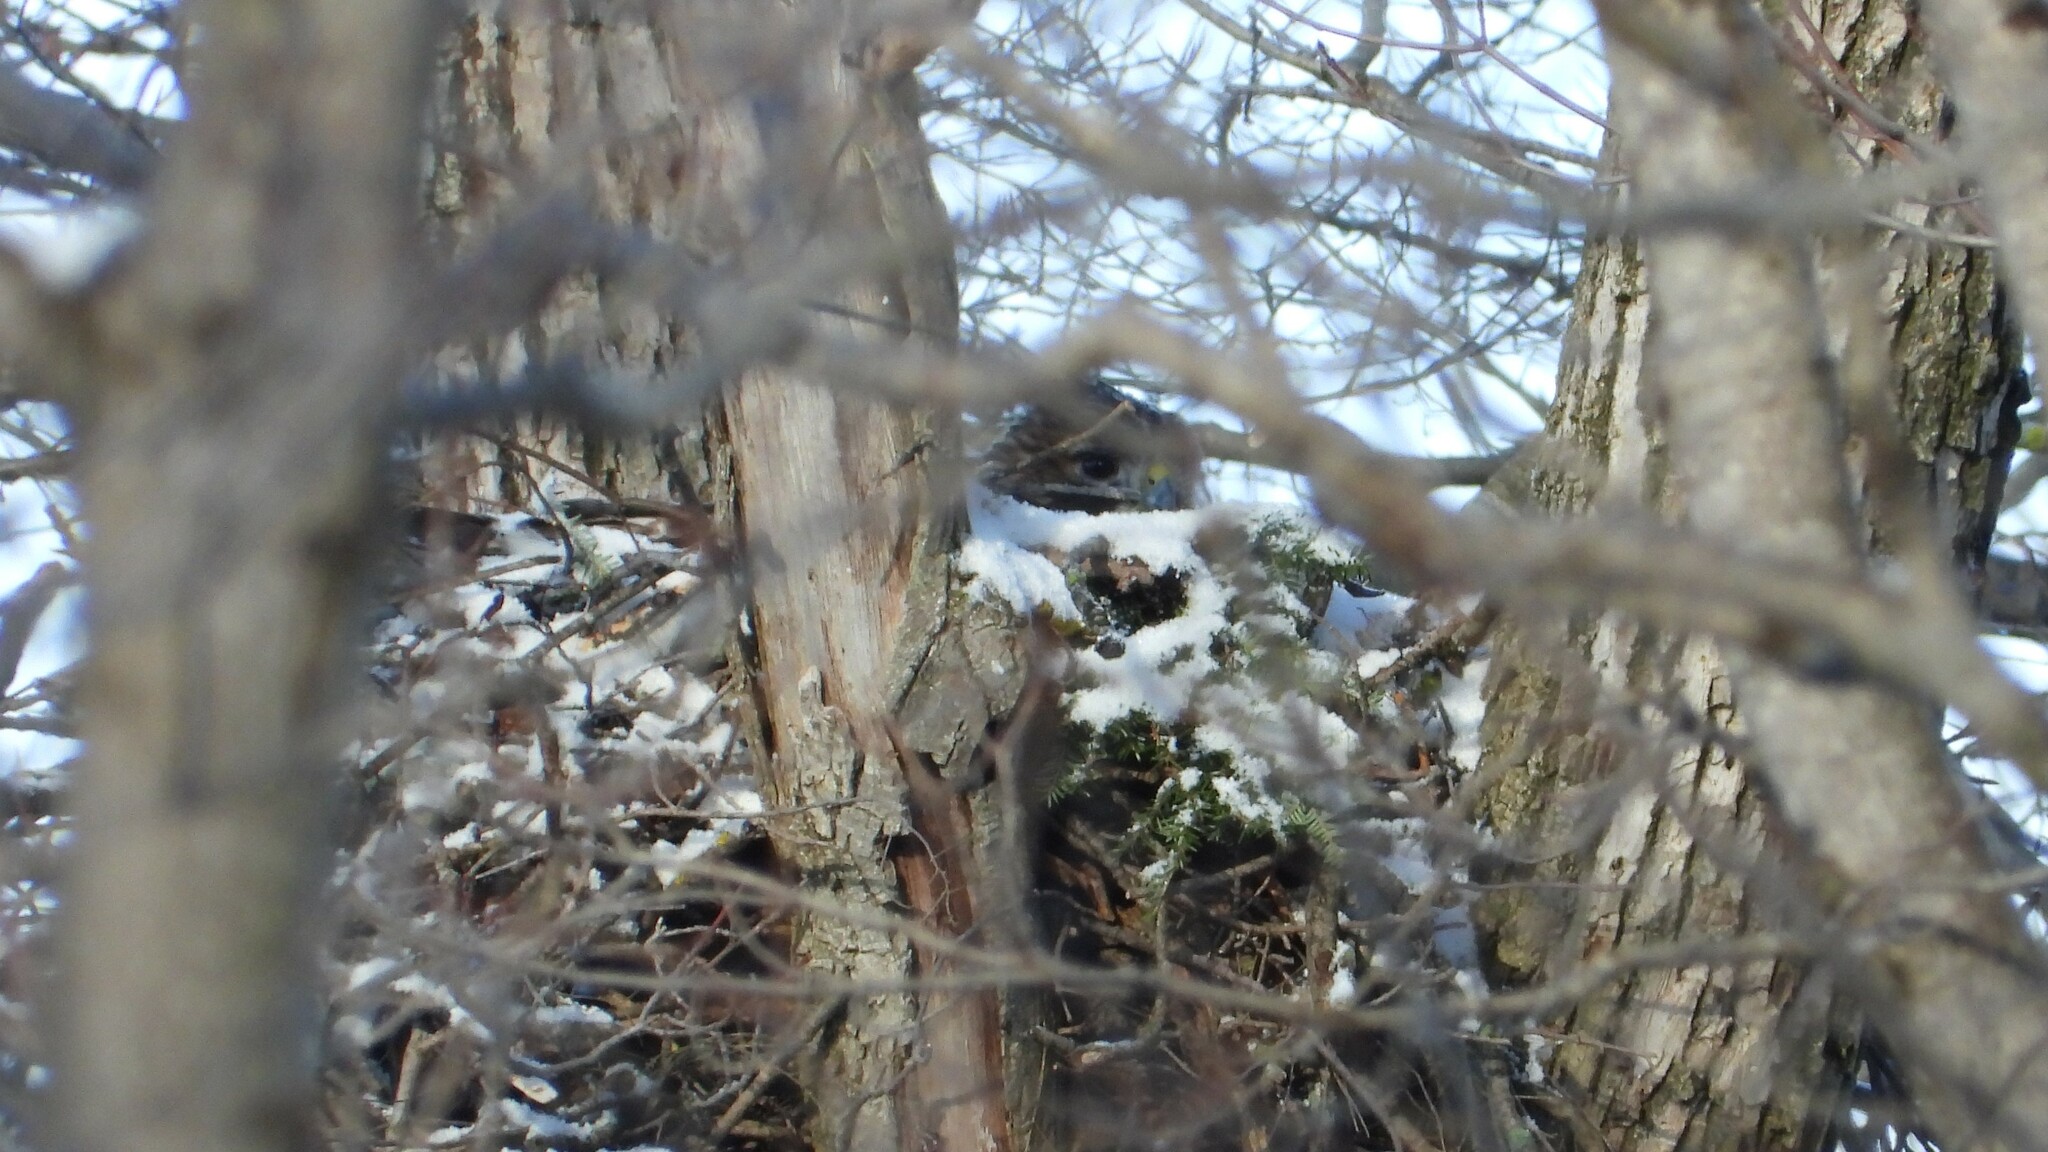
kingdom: Animalia
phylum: Chordata
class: Aves
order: Accipitriformes
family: Accipitridae
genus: Buteo
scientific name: Buteo jamaicensis
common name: Red-tailed hawk
